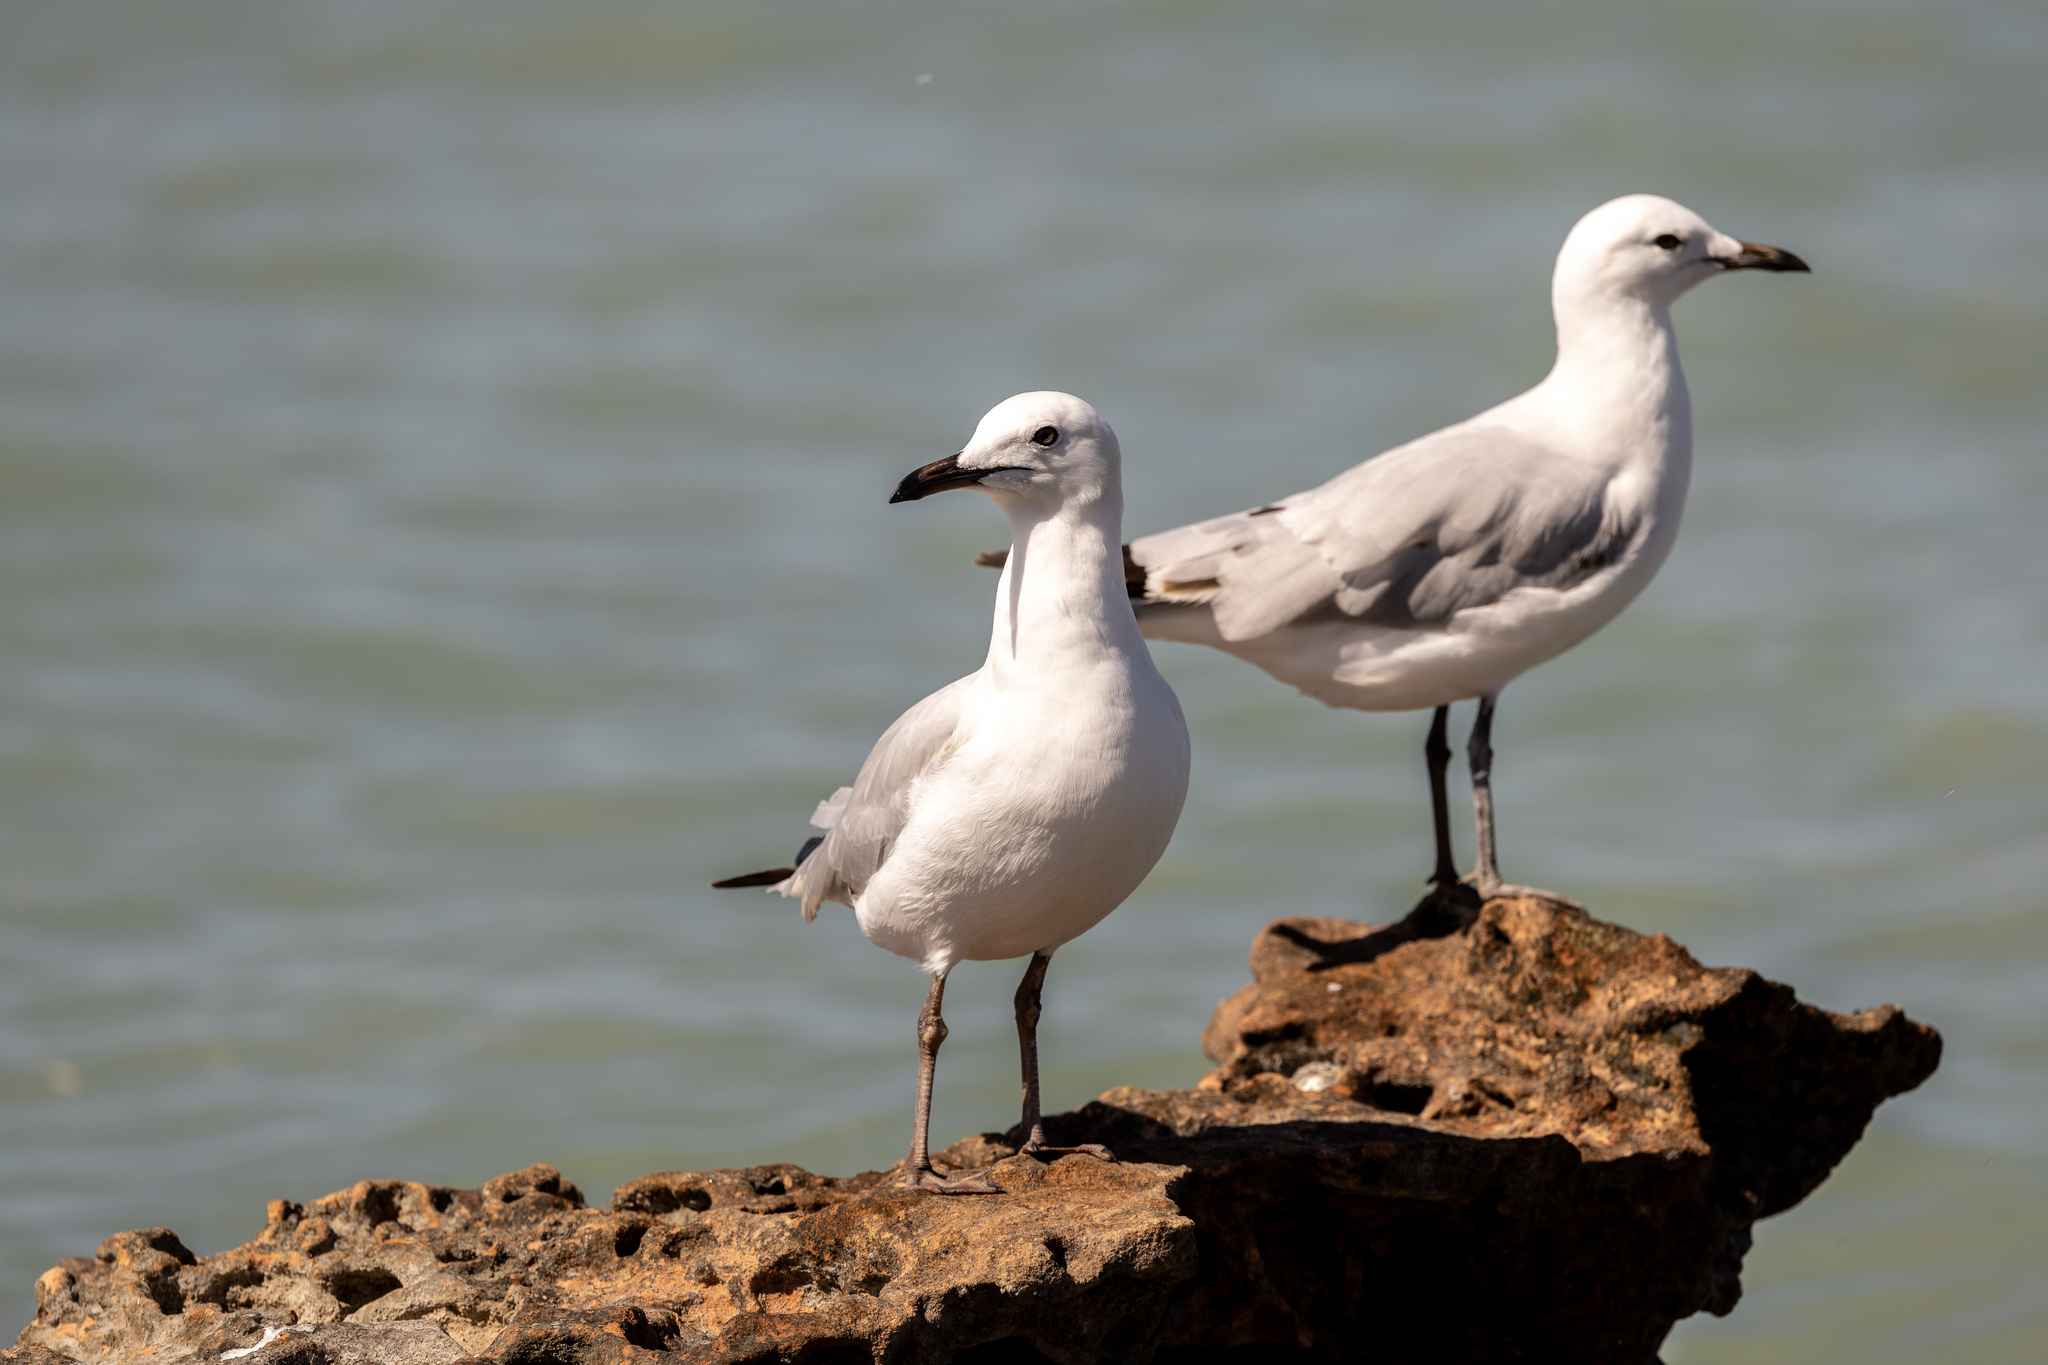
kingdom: Animalia
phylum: Chordata
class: Aves
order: Charadriiformes
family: Laridae
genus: Chroicocephalus
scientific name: Chroicocephalus novaehollandiae
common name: Silver gull
